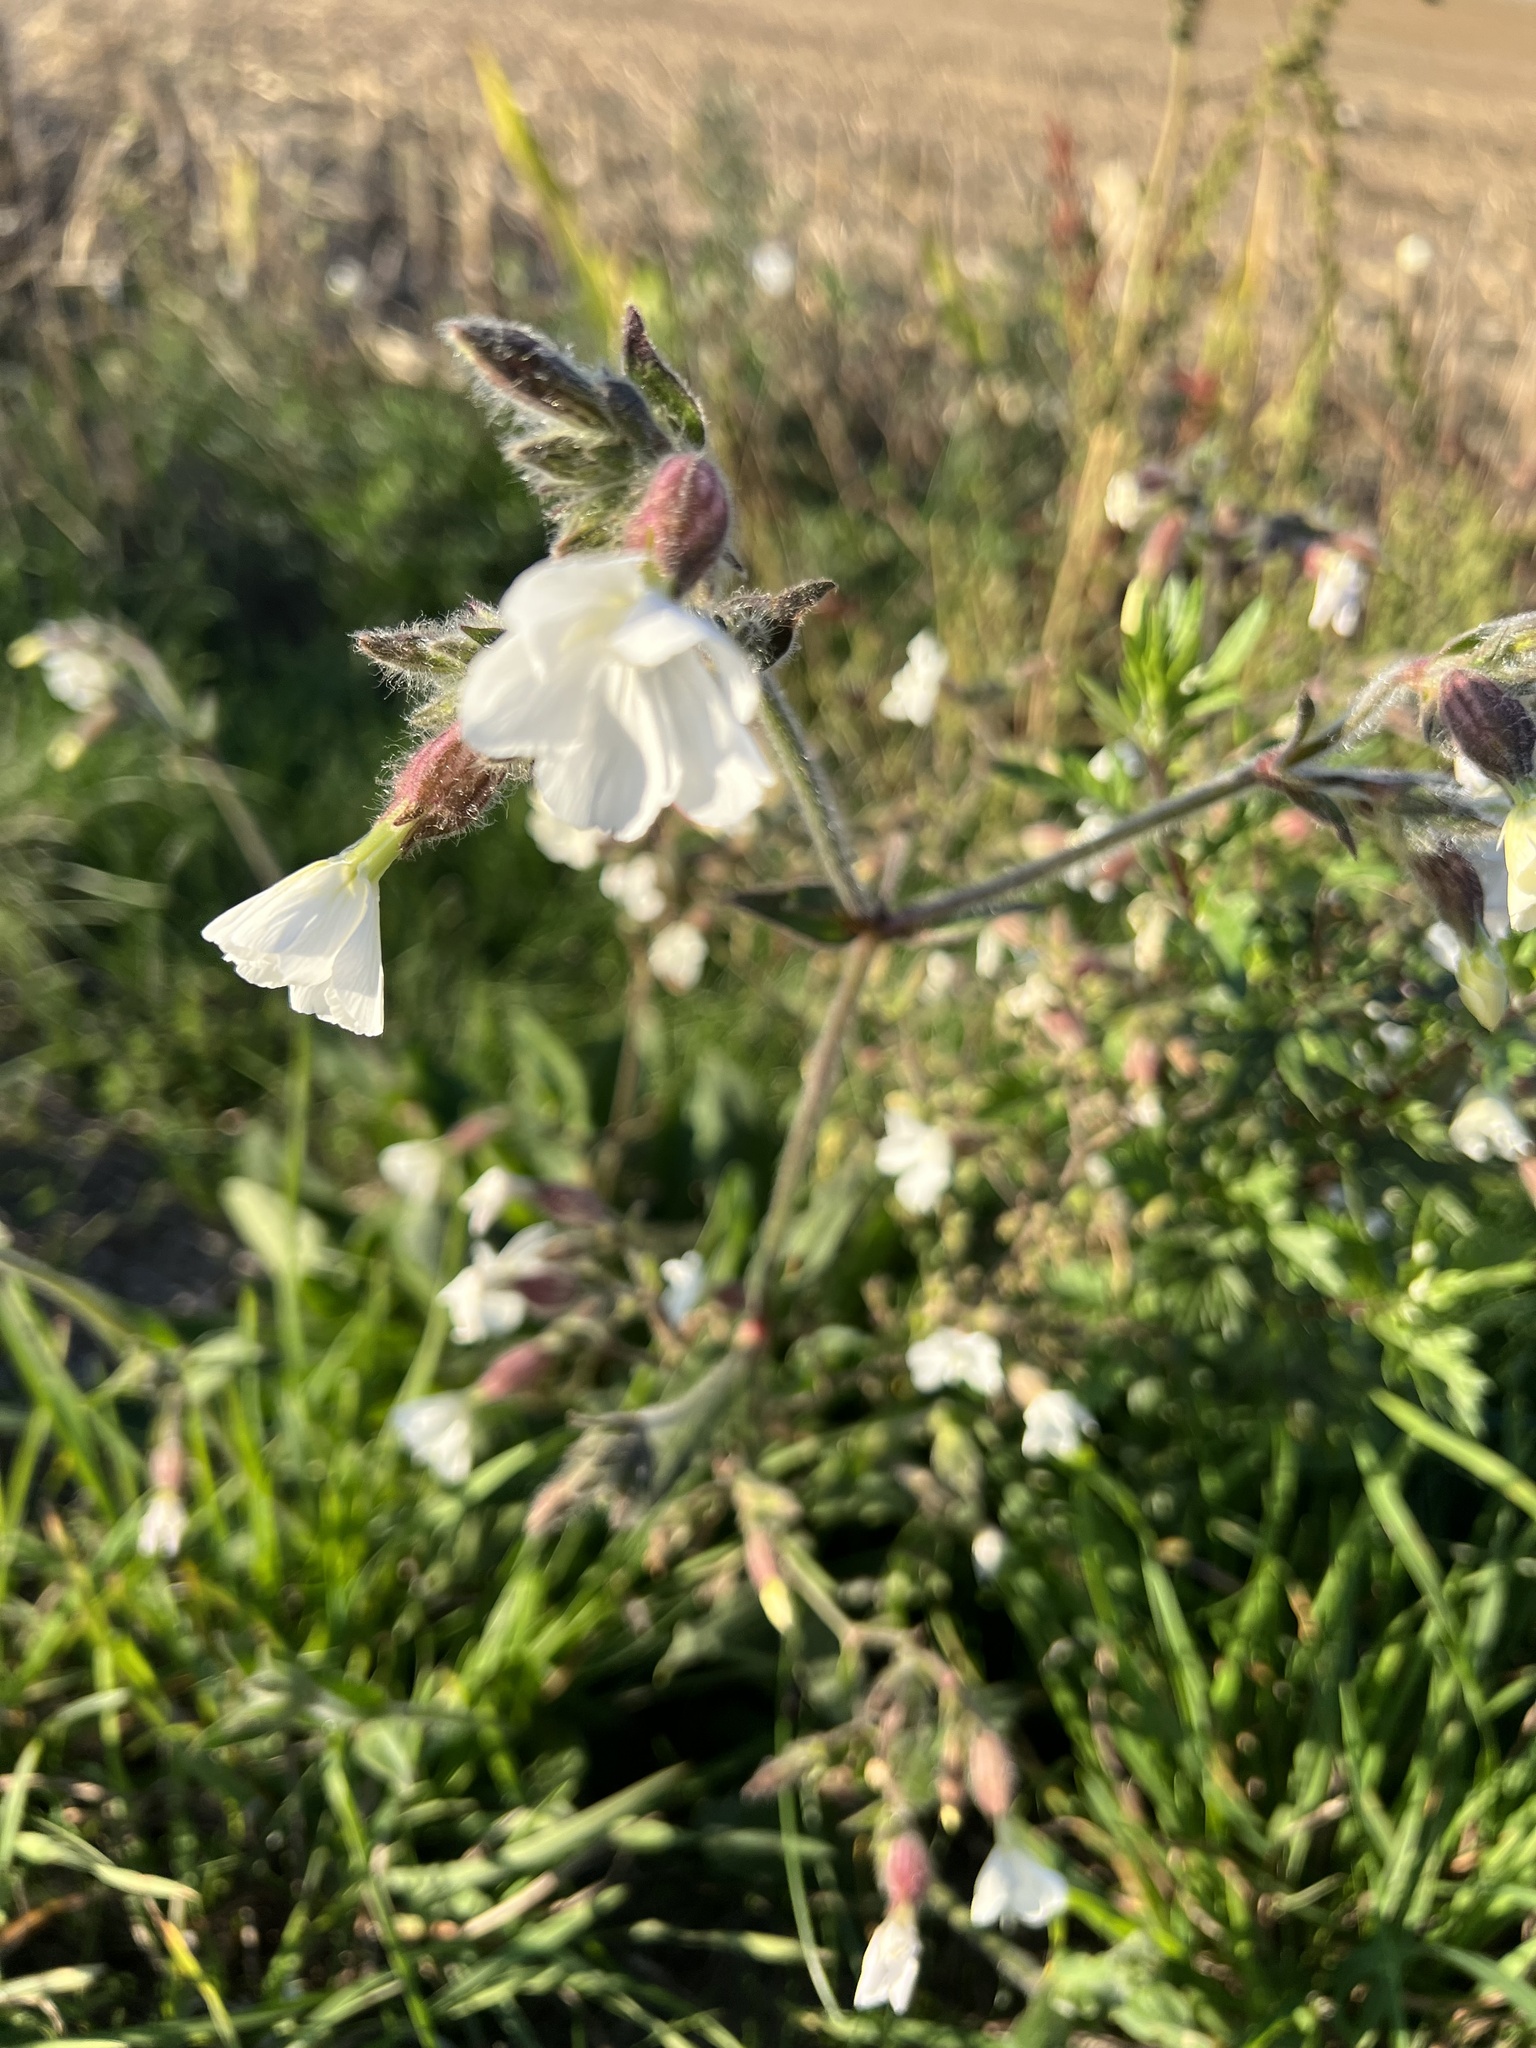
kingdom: Plantae
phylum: Tracheophyta
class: Magnoliopsida
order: Caryophyllales
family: Caryophyllaceae
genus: Silene
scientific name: Silene latifolia
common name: White campion
